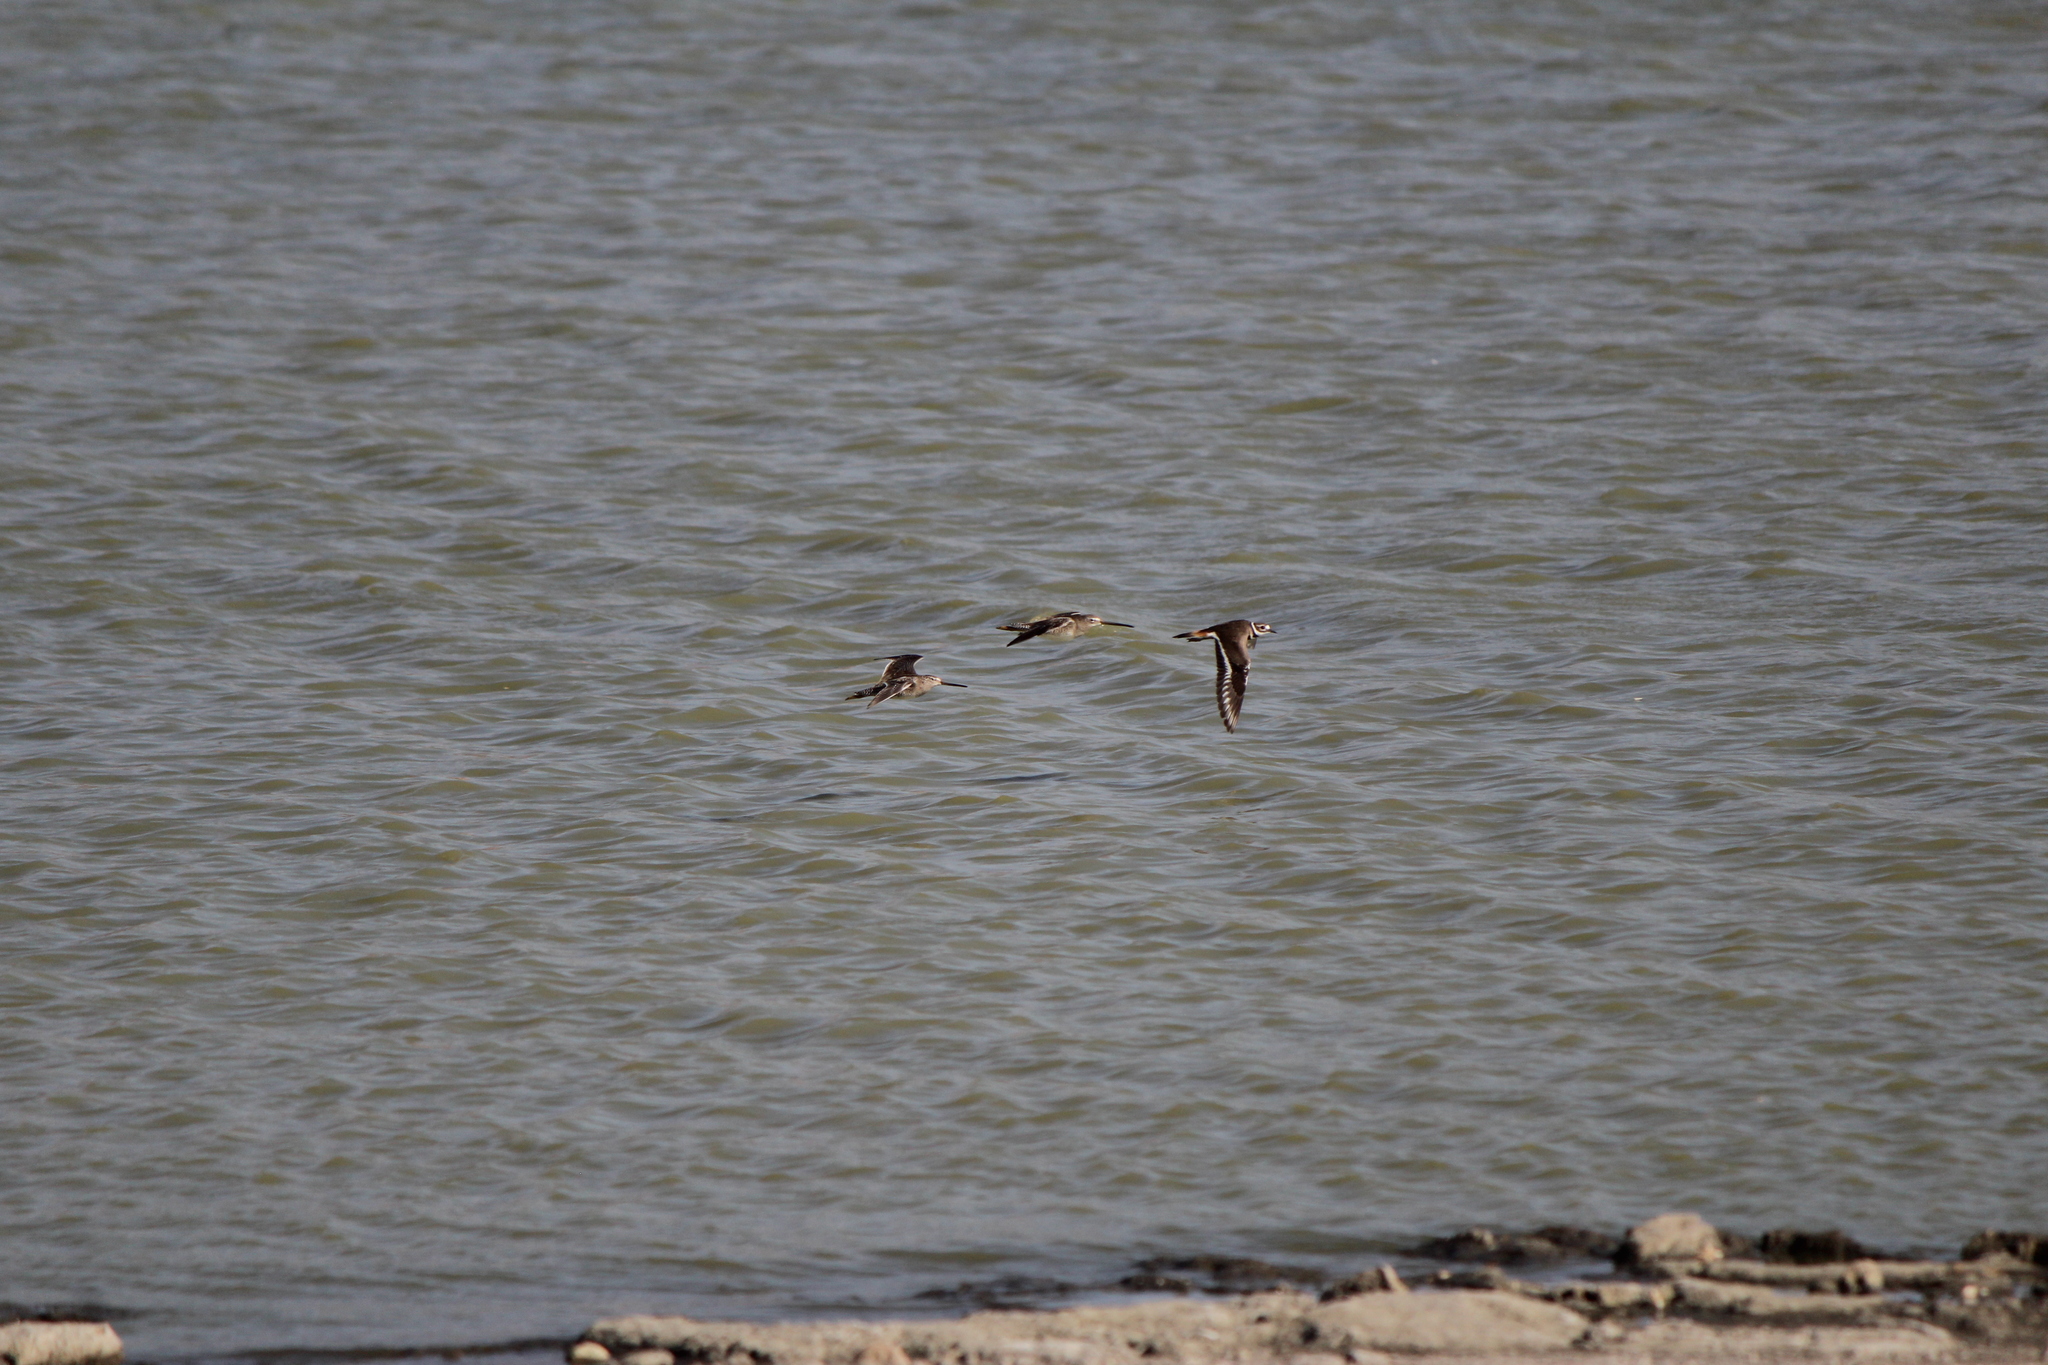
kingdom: Animalia
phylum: Chordata
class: Aves
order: Charadriiformes
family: Charadriidae
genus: Charadrius
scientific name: Charadrius vociferus
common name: Killdeer
